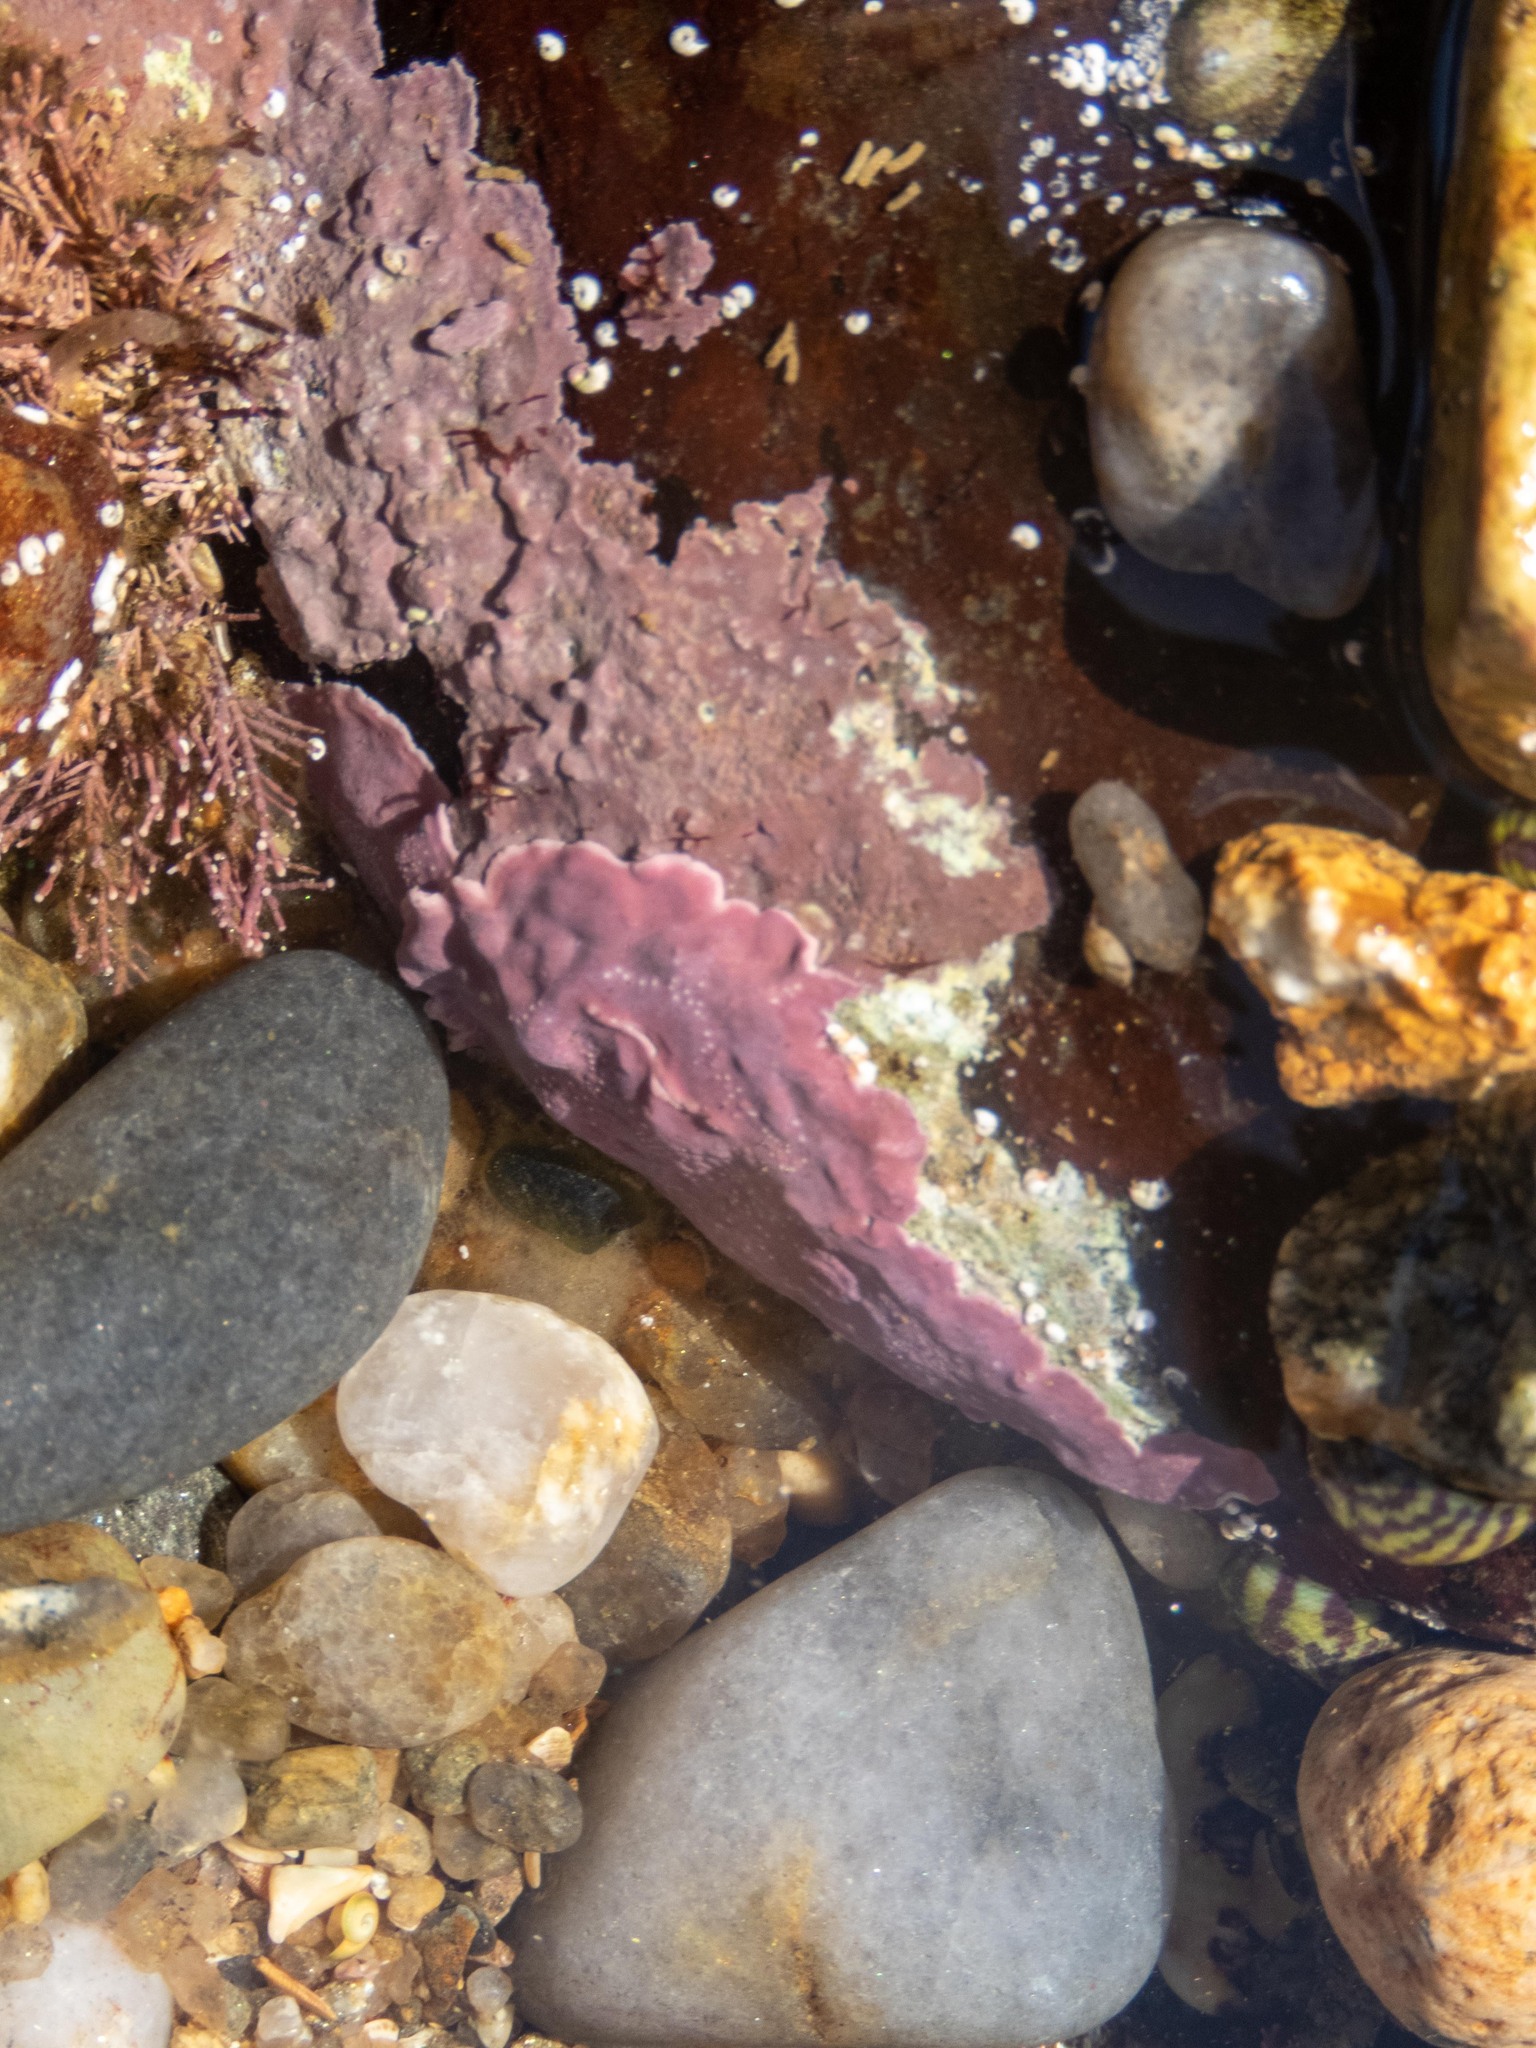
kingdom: Plantae
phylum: Rhodophyta
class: Florideophyceae
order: Corallinales
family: Lithophyllaceae
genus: Lithophyllum
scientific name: Lithophyllum incrustans
